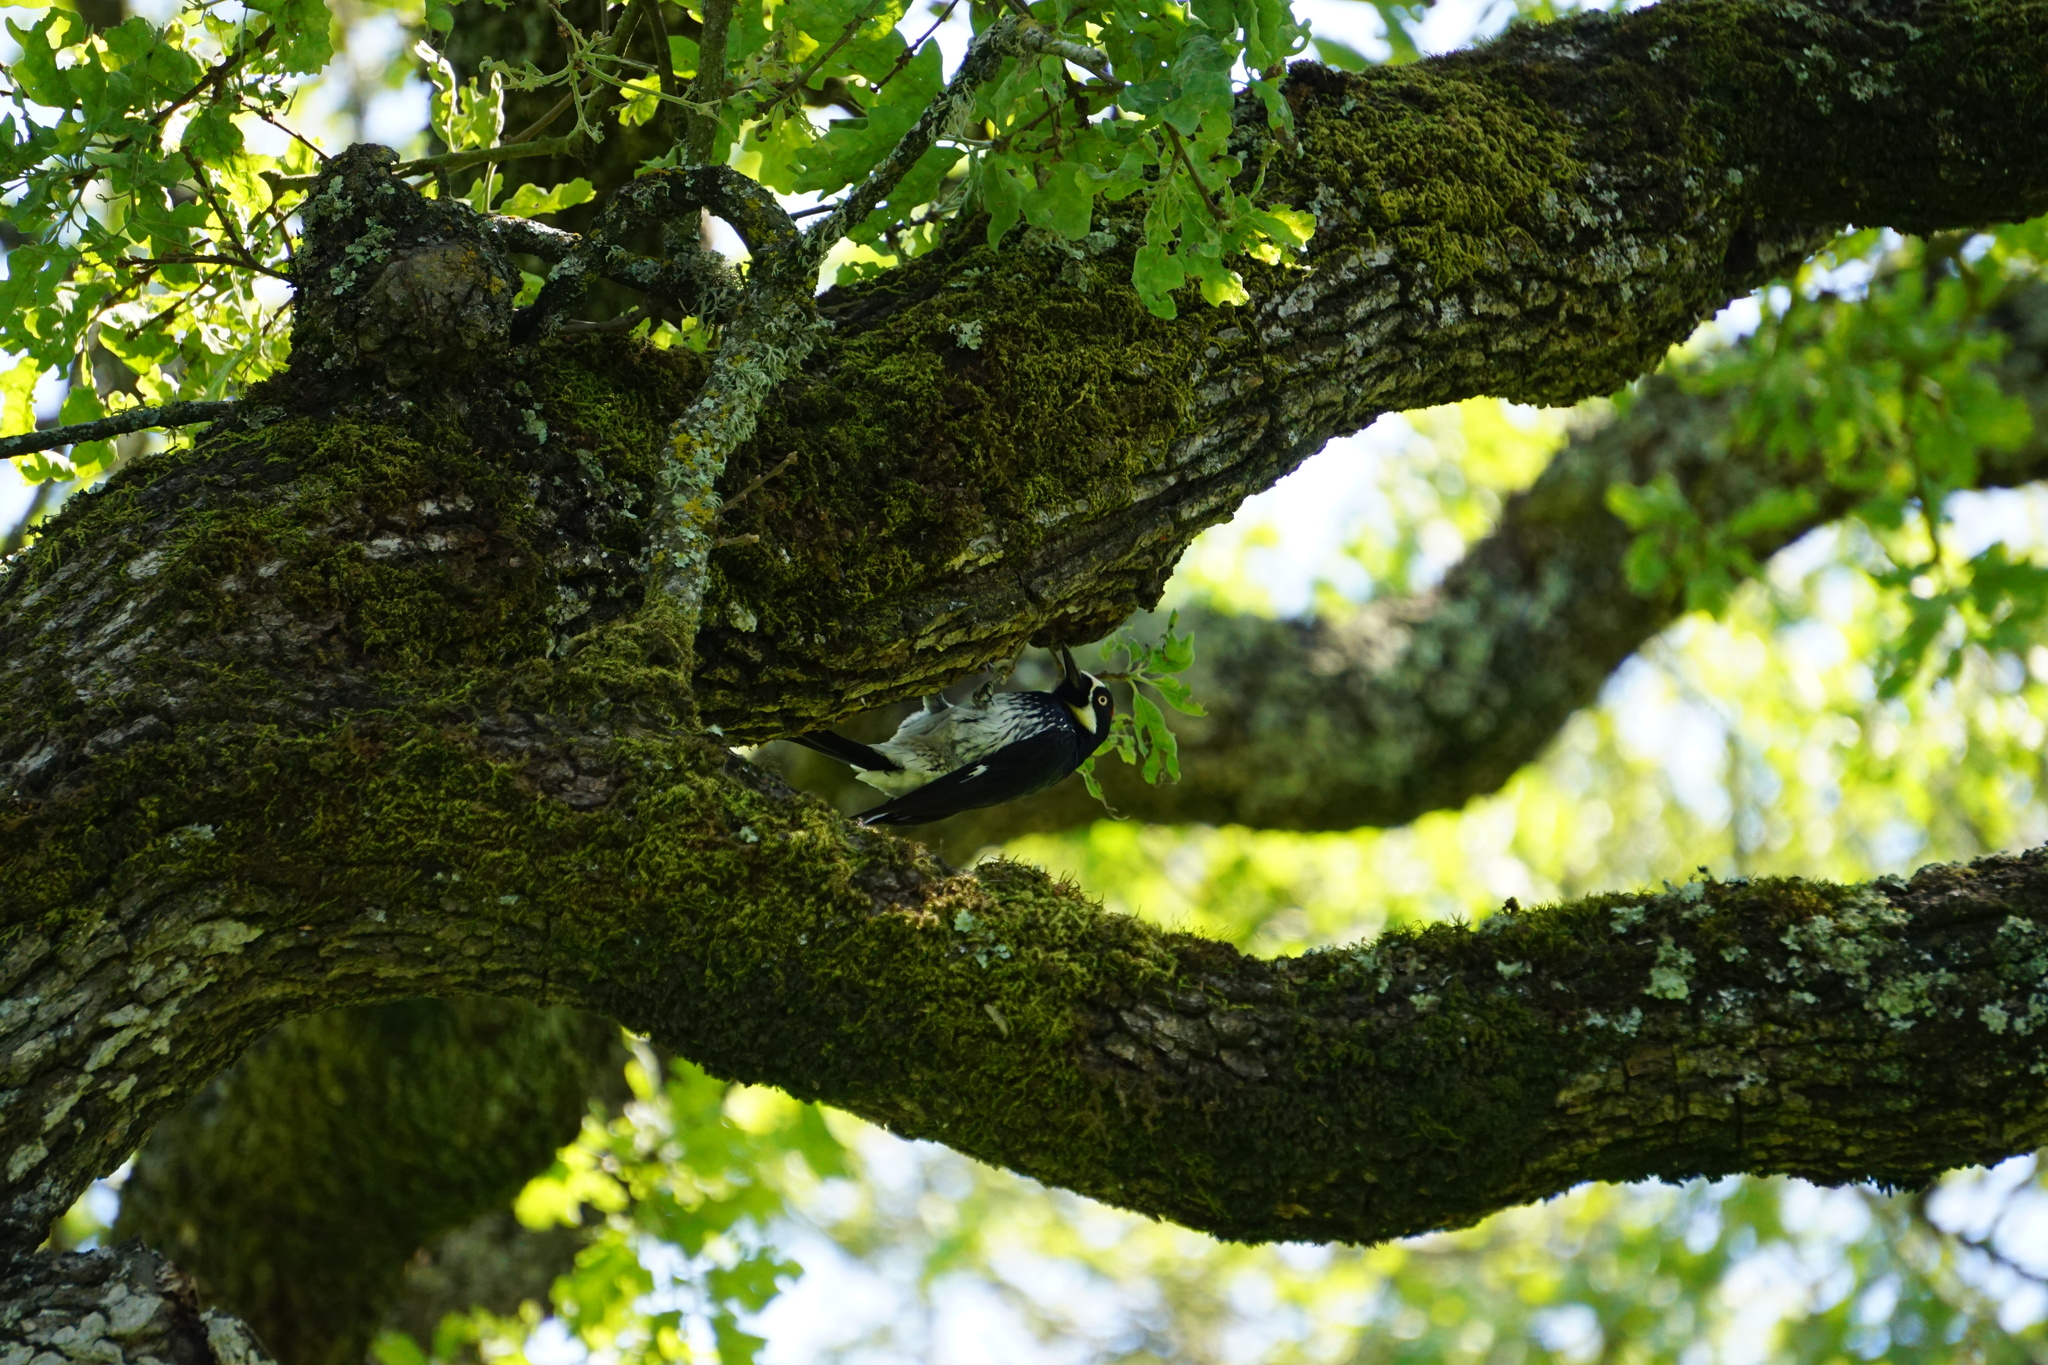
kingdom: Animalia
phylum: Chordata
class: Aves
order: Piciformes
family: Picidae
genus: Melanerpes
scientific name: Melanerpes formicivorus
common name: Acorn woodpecker
